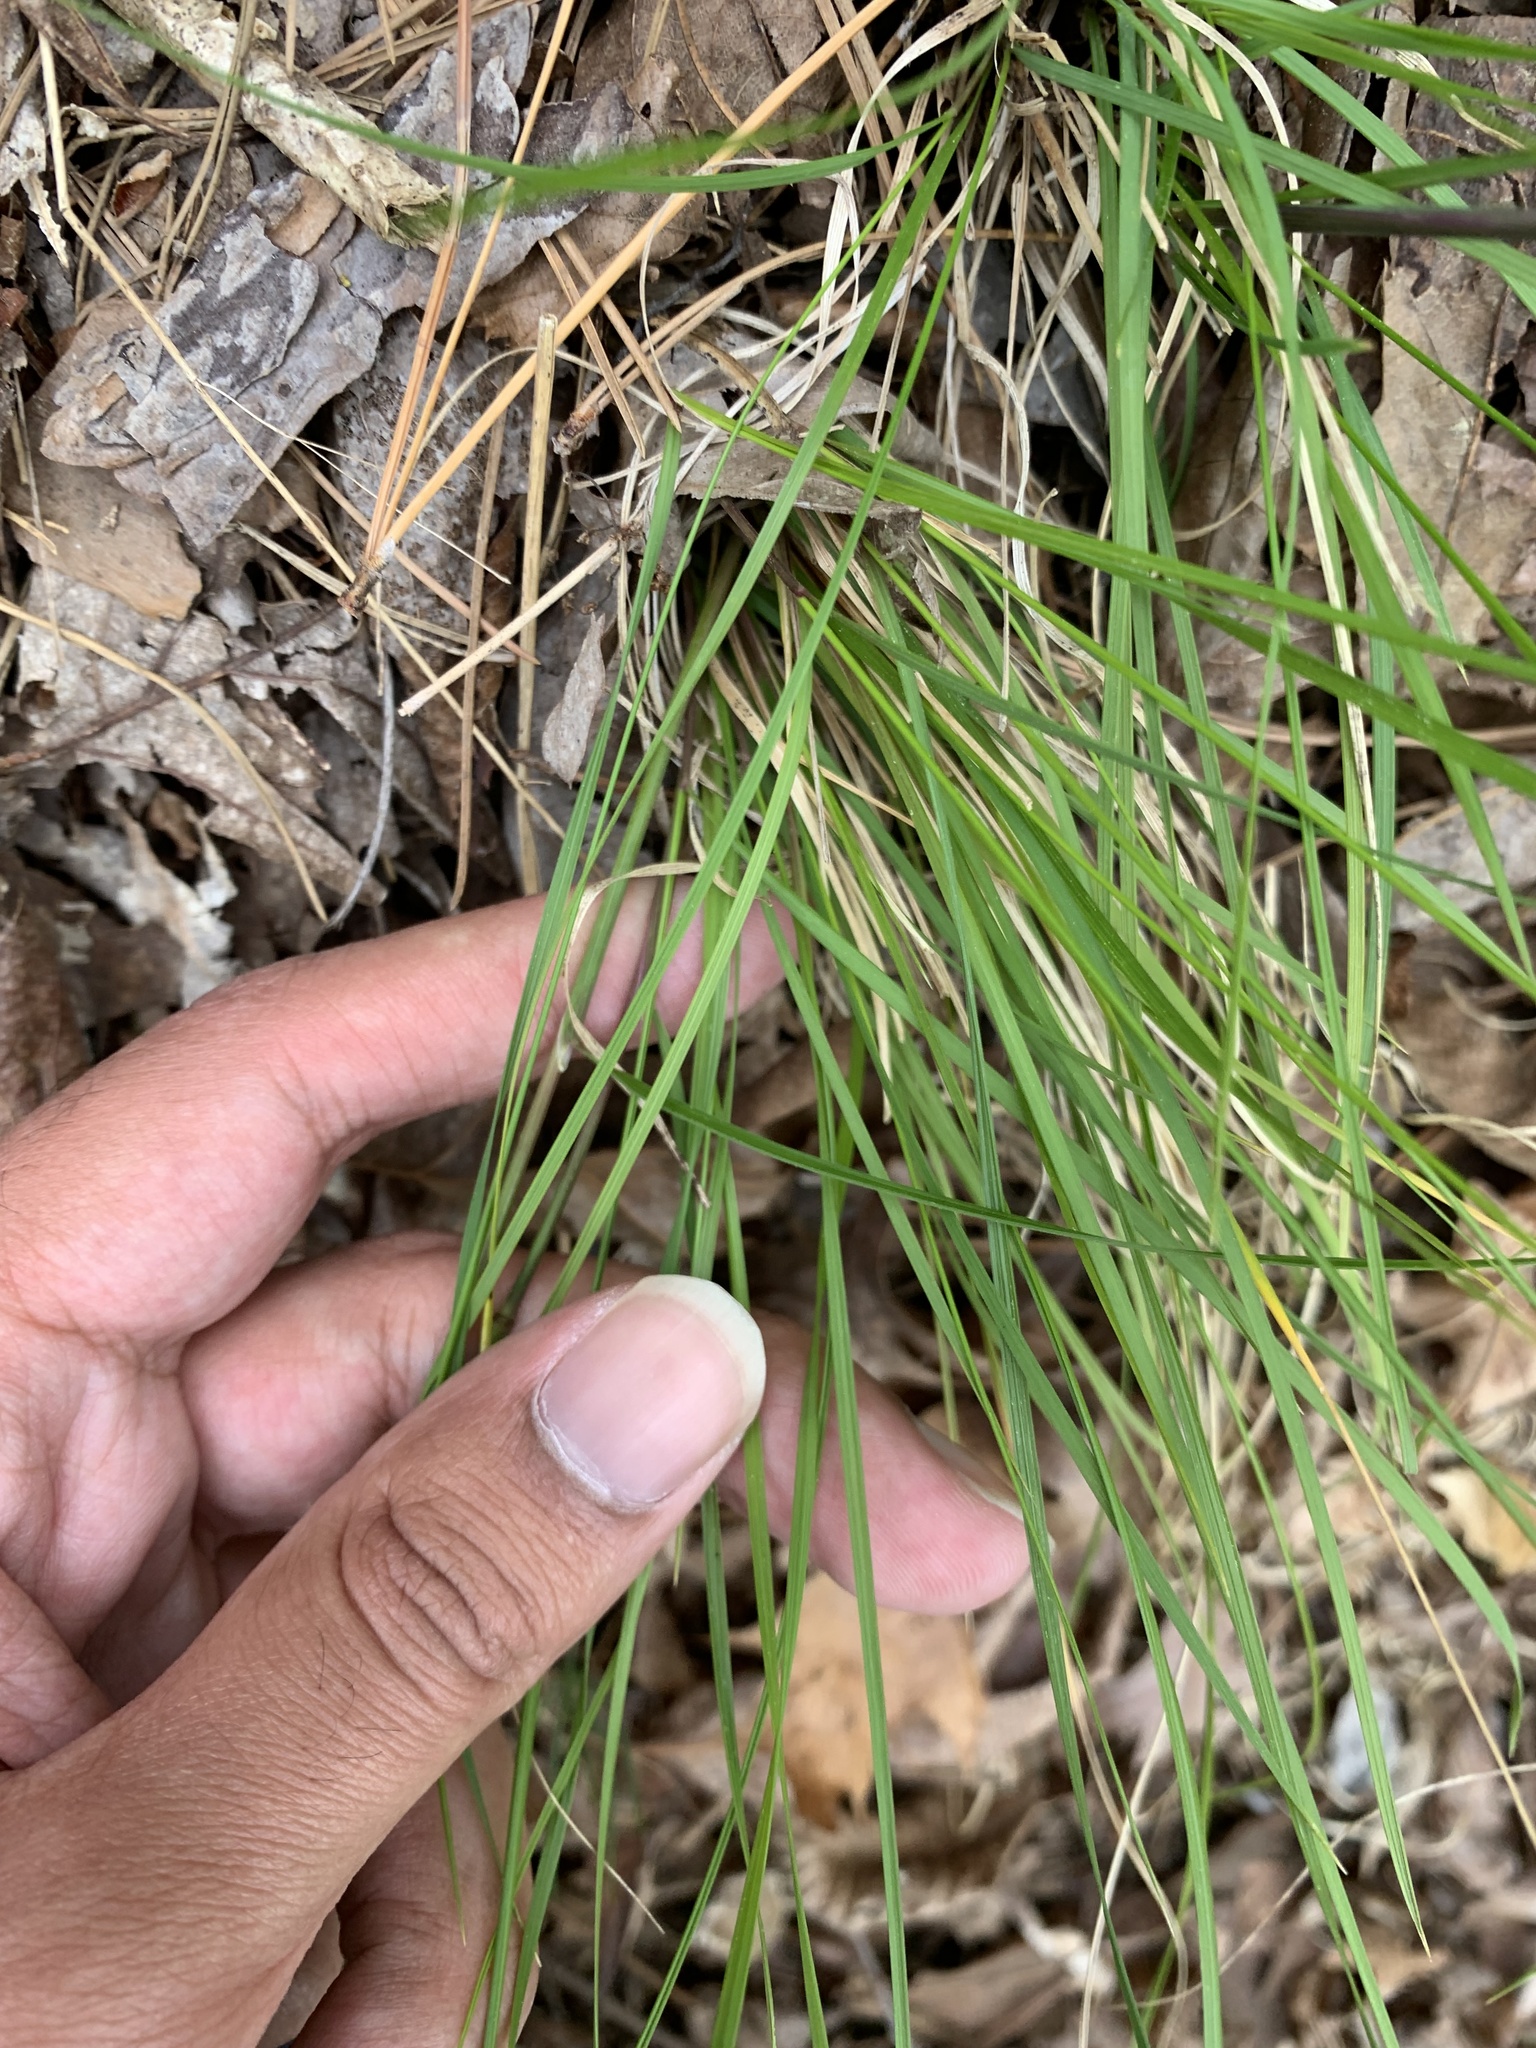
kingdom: Plantae
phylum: Tracheophyta
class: Liliopsida
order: Poales
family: Poaceae
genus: Piptochaetium
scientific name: Piptochaetium avenaceum
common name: Black bunchgrass
